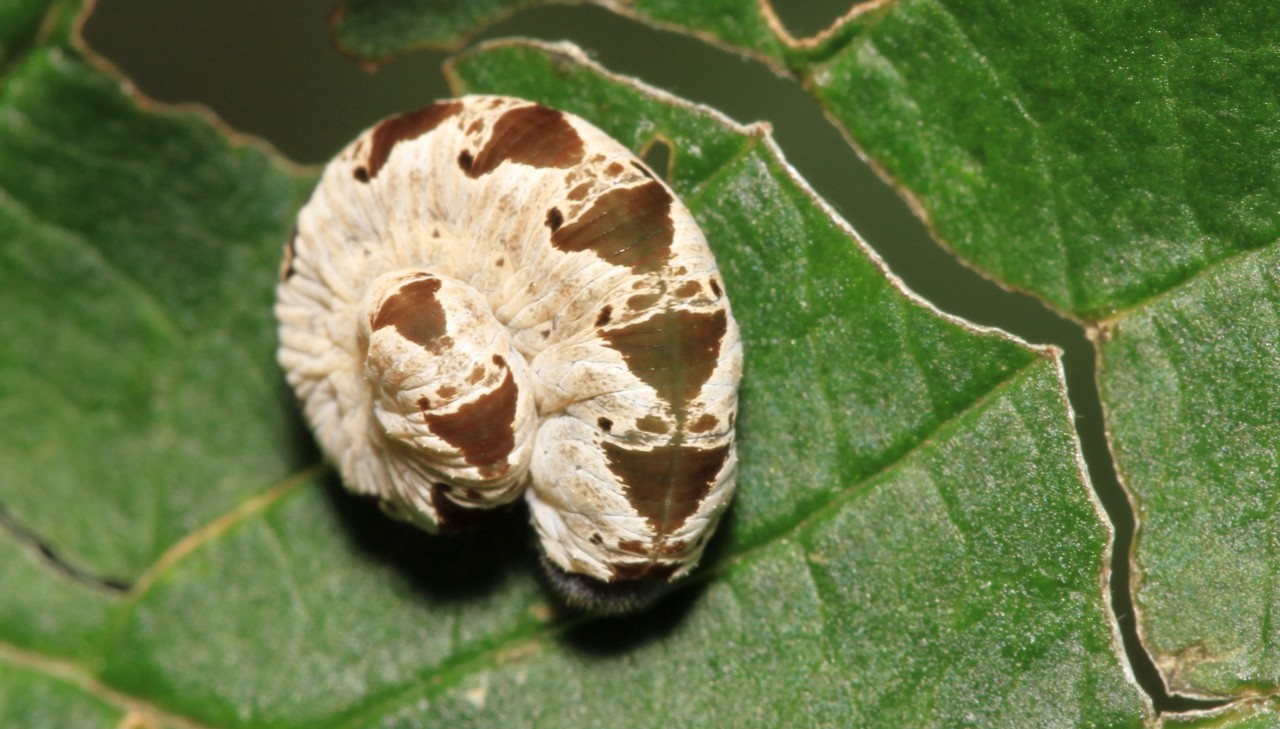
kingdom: Animalia
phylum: Arthropoda
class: Insecta
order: Hymenoptera
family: Tenthredinidae
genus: Tenthredo
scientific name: Tenthredo vespa
